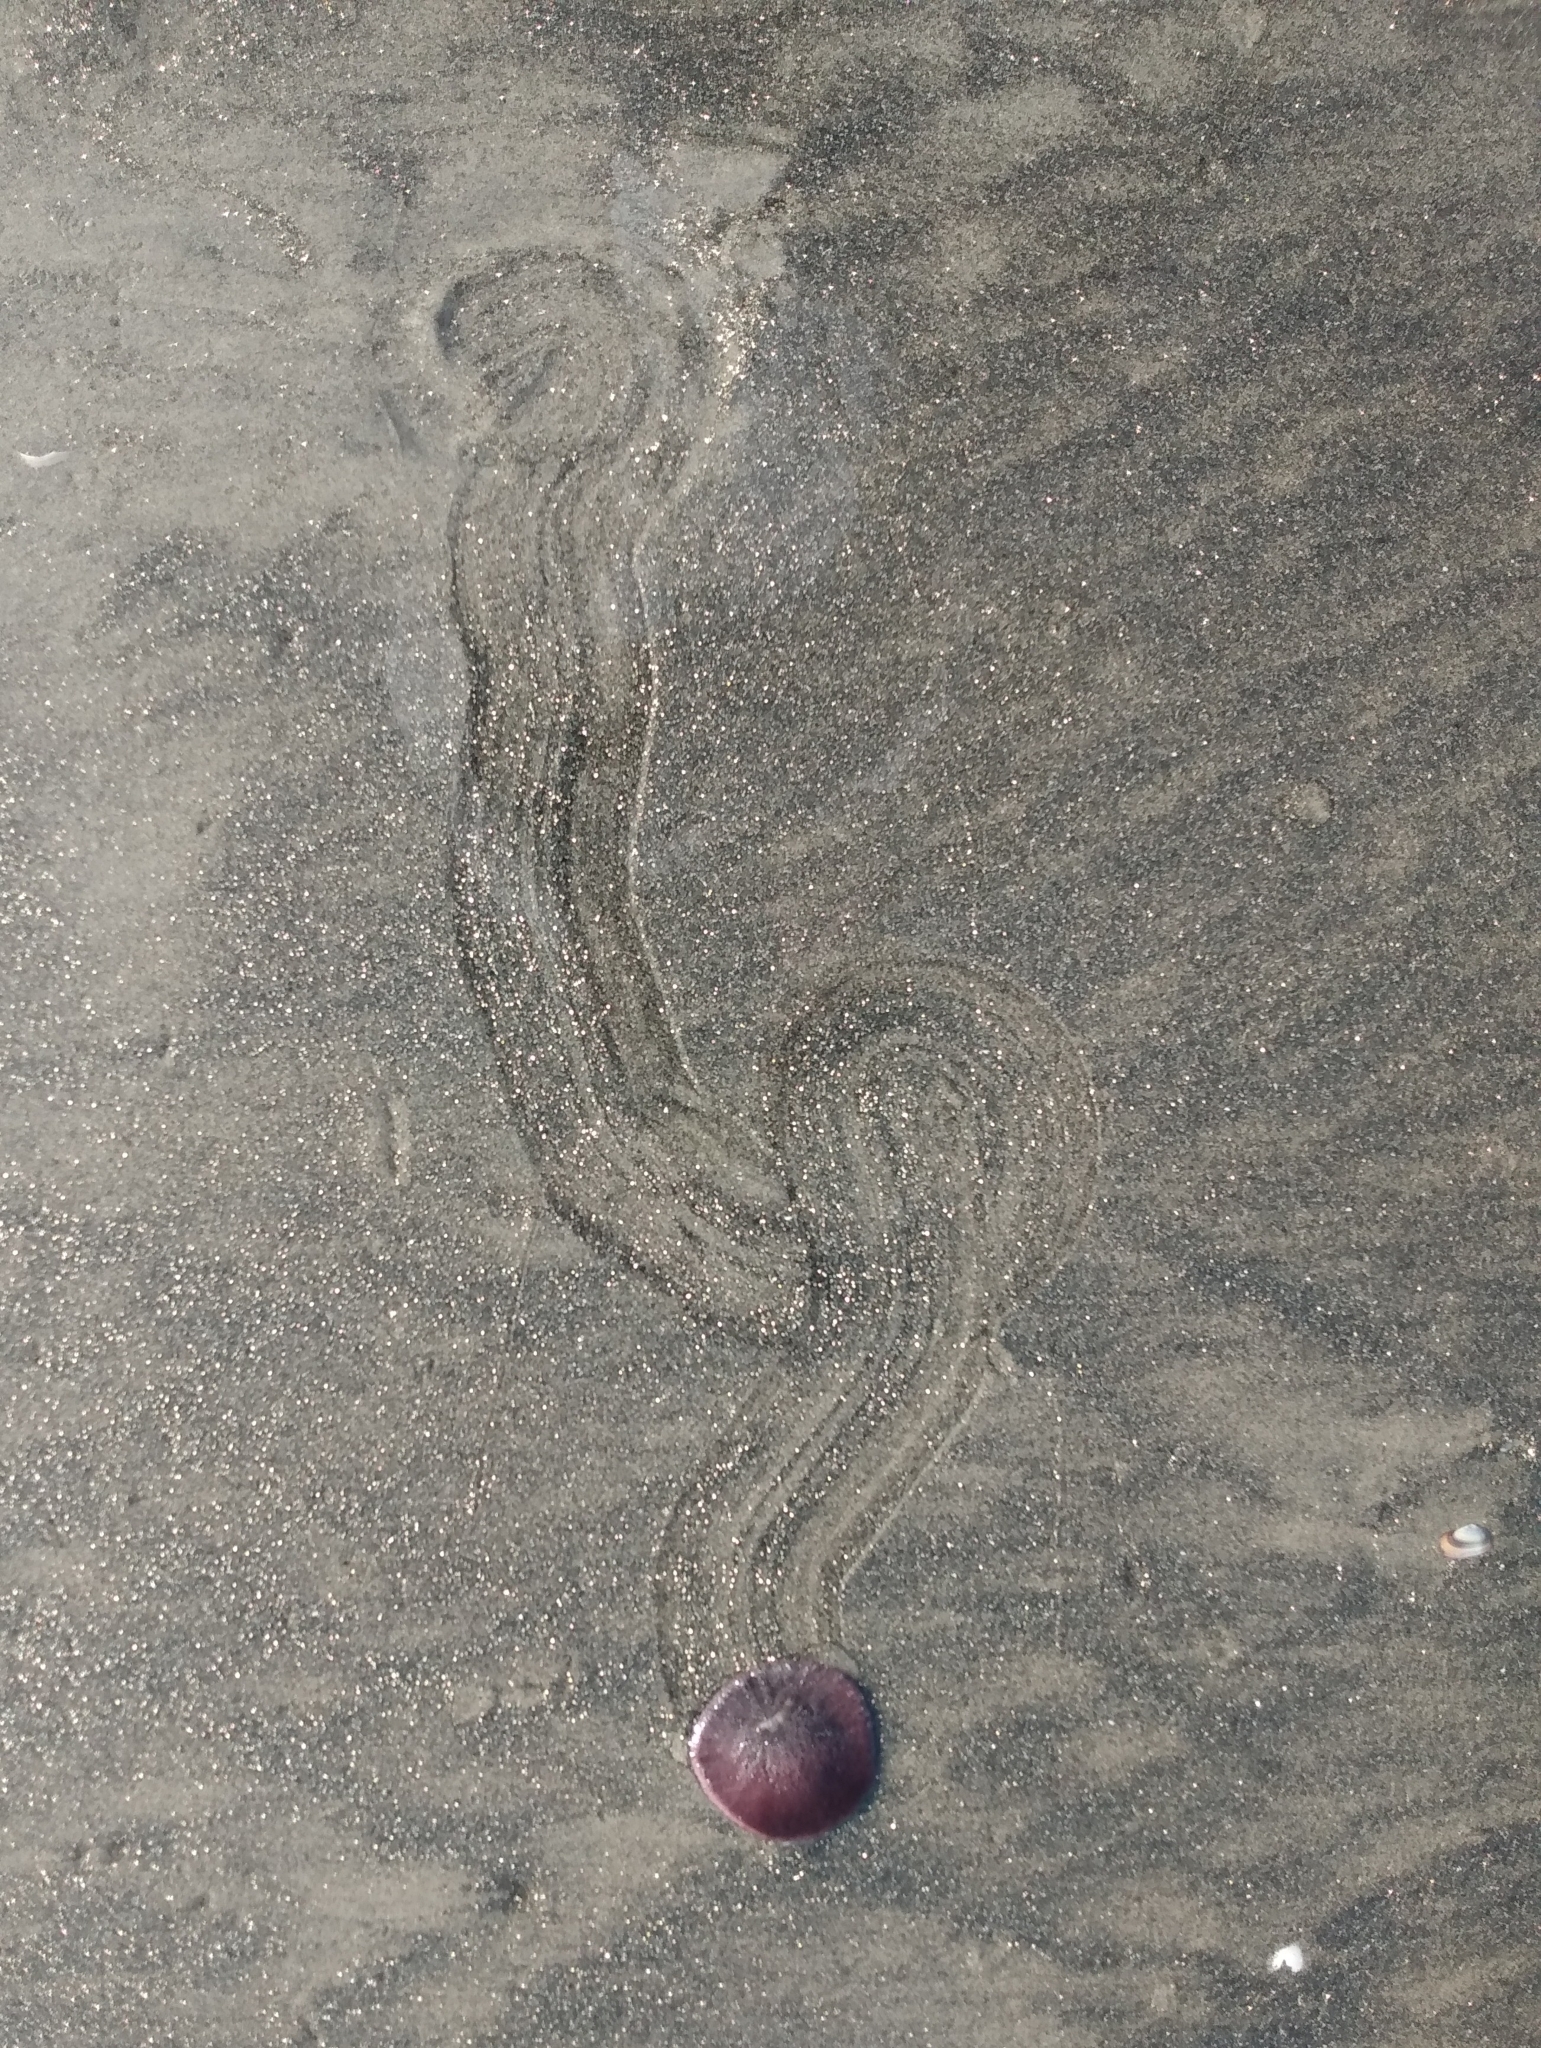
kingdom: Animalia
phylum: Echinodermata
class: Echinoidea
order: Echinolampadacea
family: Dendrasteridae
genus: Dendraster
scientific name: Dendraster excentricus
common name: Eccentric sand dollar sea urchin
